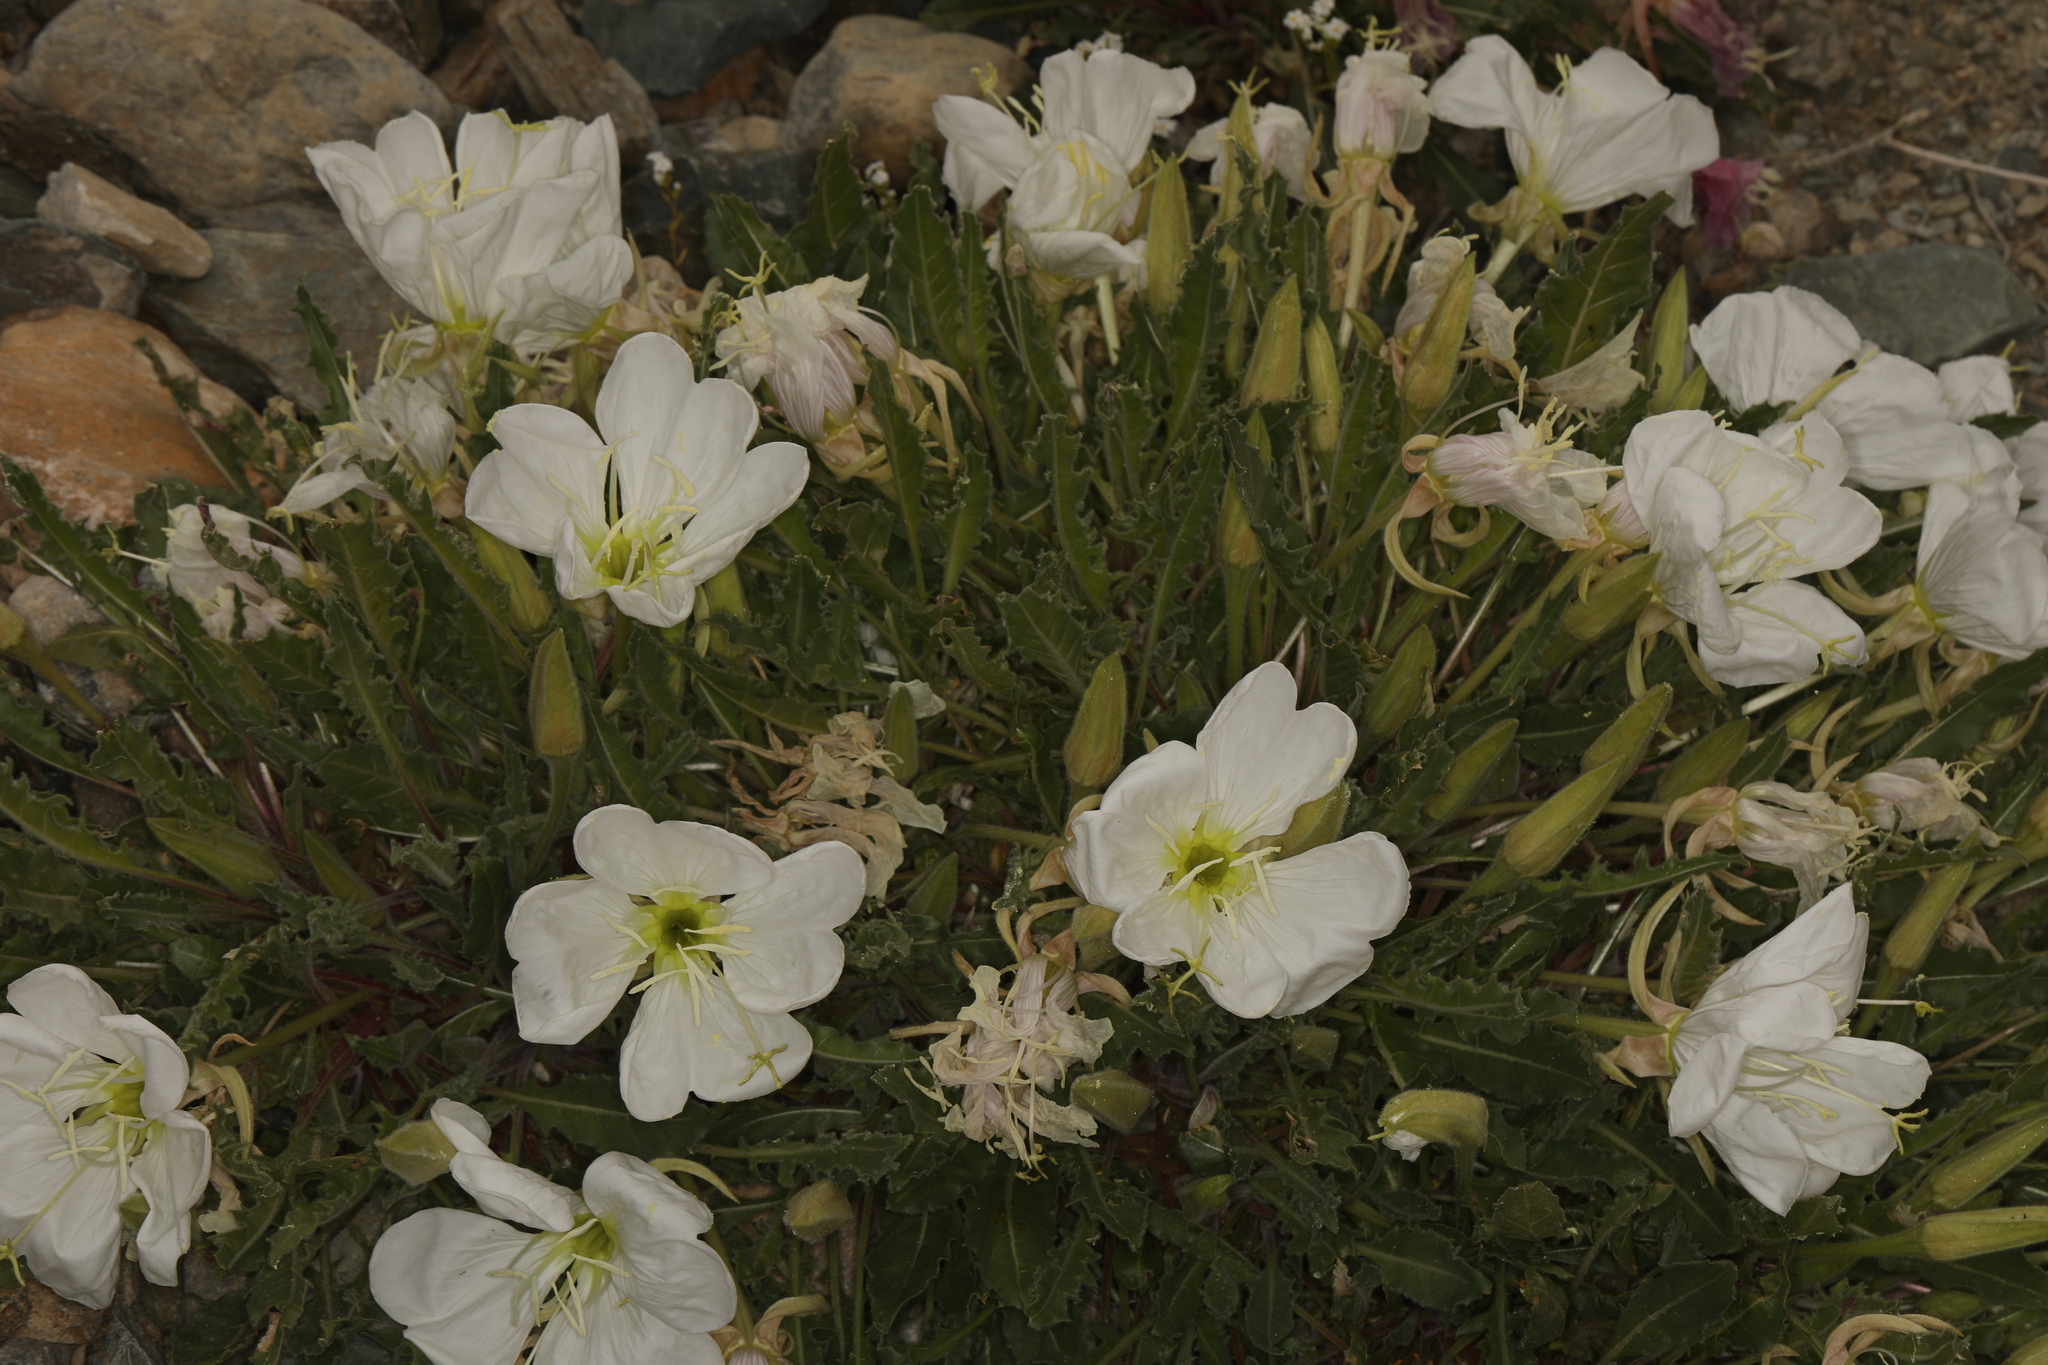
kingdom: Plantae
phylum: Tracheophyta
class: Magnoliopsida
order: Myrtales
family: Onagraceae
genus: Oenothera
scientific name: Oenothera cespitosa
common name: Tufted evening-primrose
